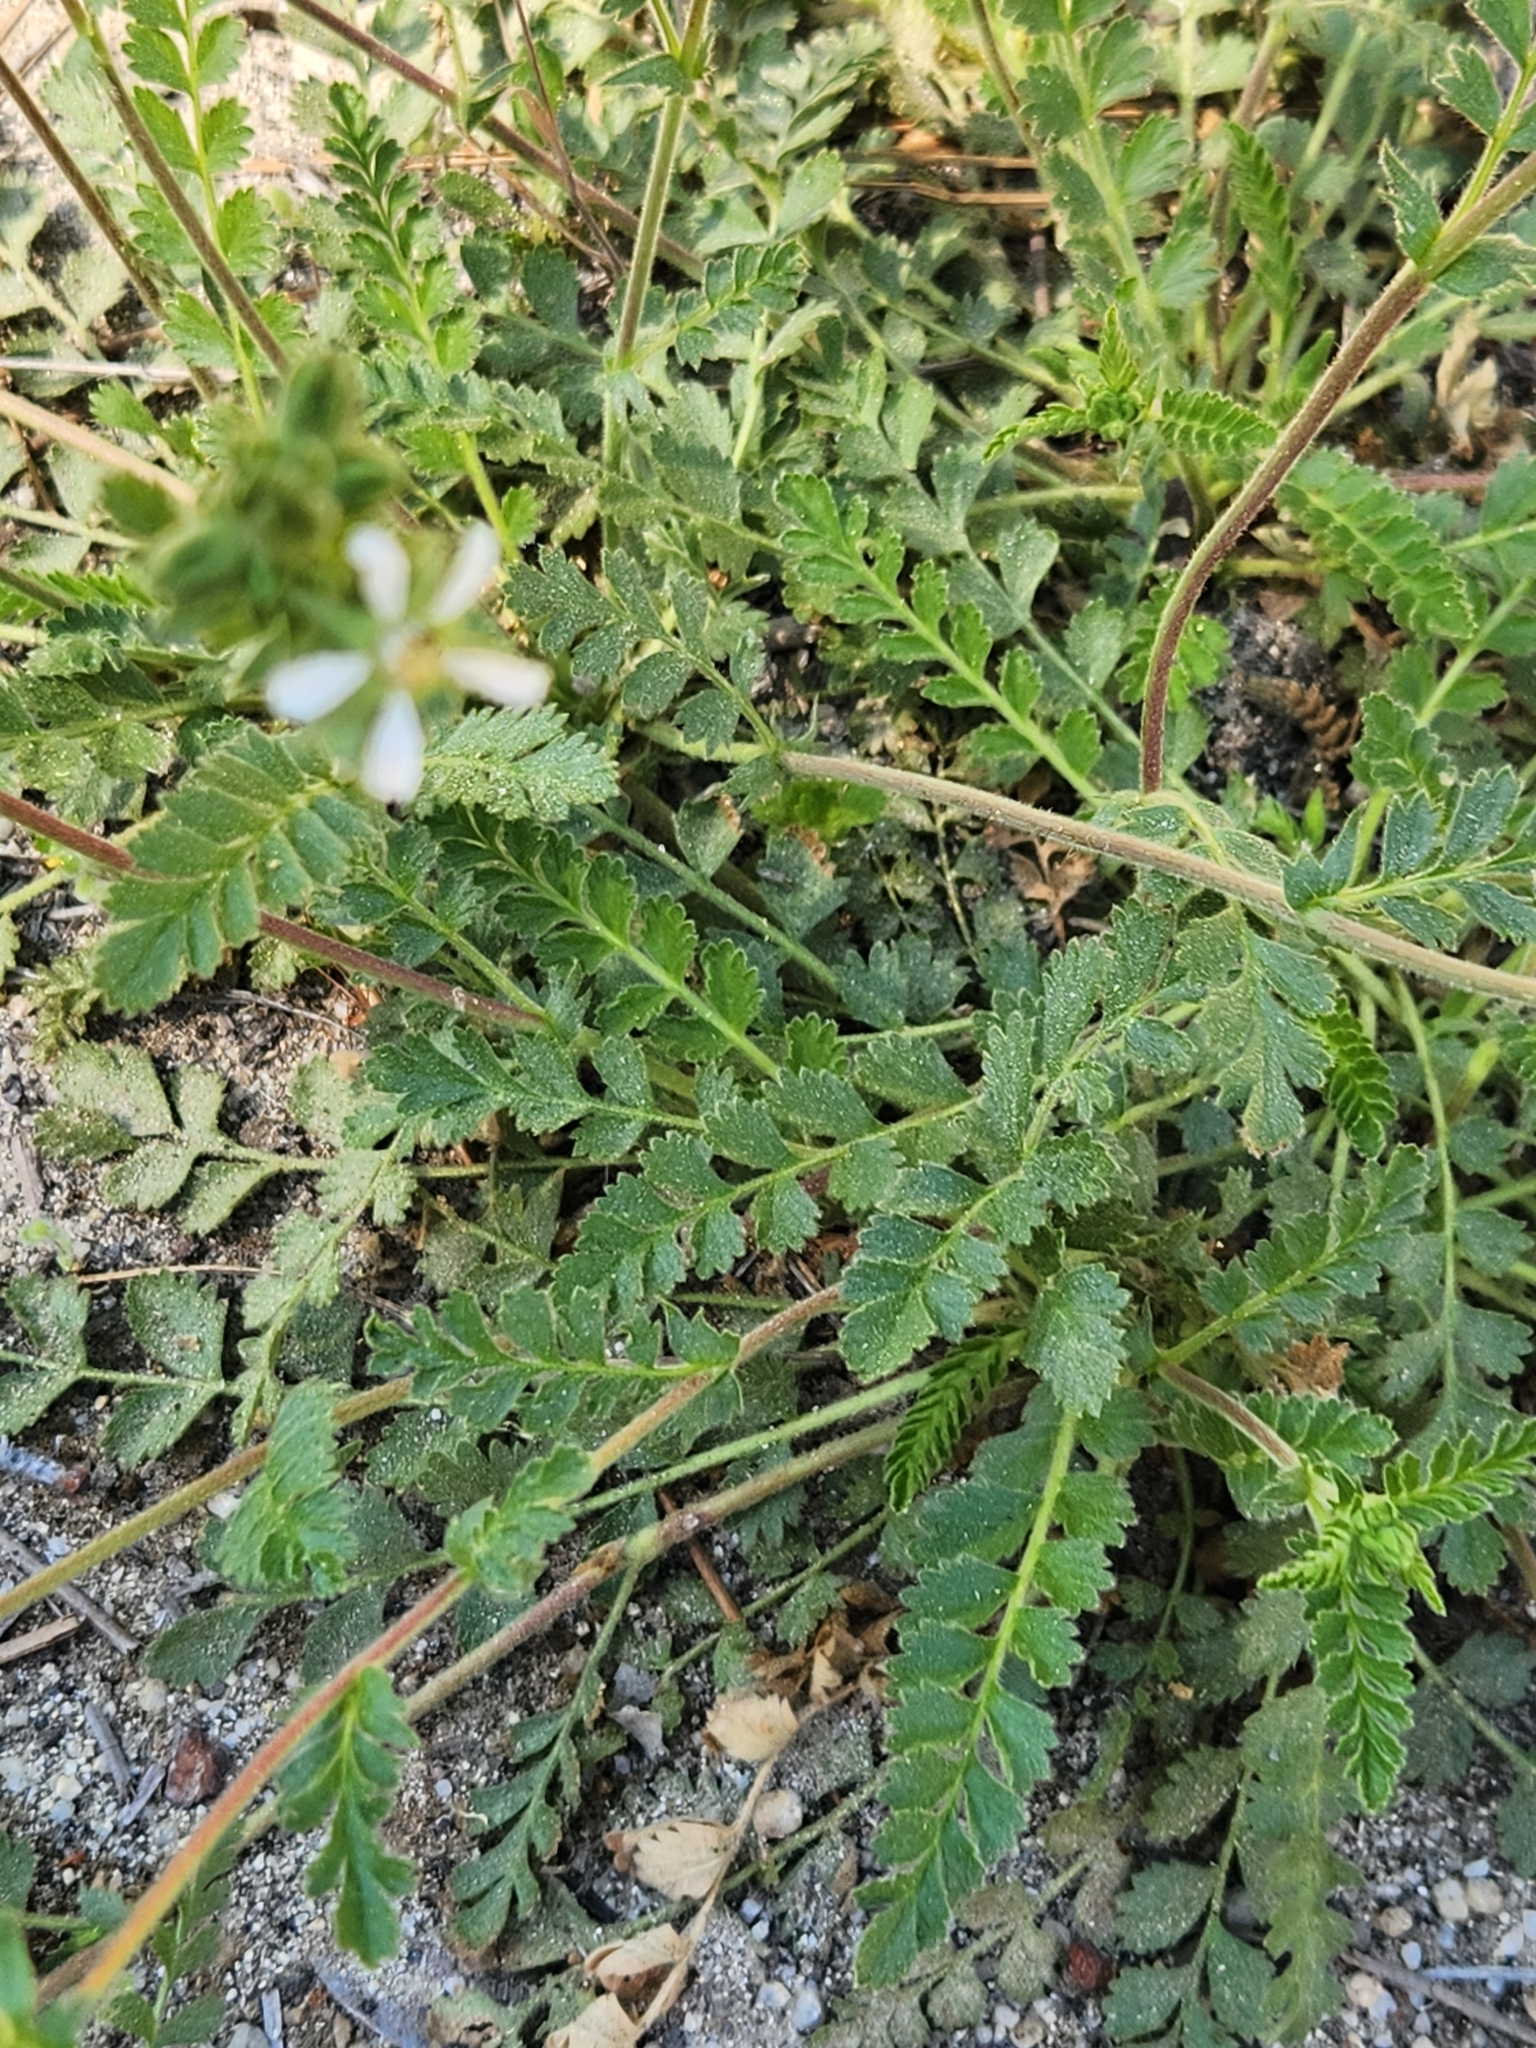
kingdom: Plantae
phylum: Tracheophyta
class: Magnoliopsida
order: Rosales
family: Rosaceae
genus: Potentilla
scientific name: Potentilla clevelandii
